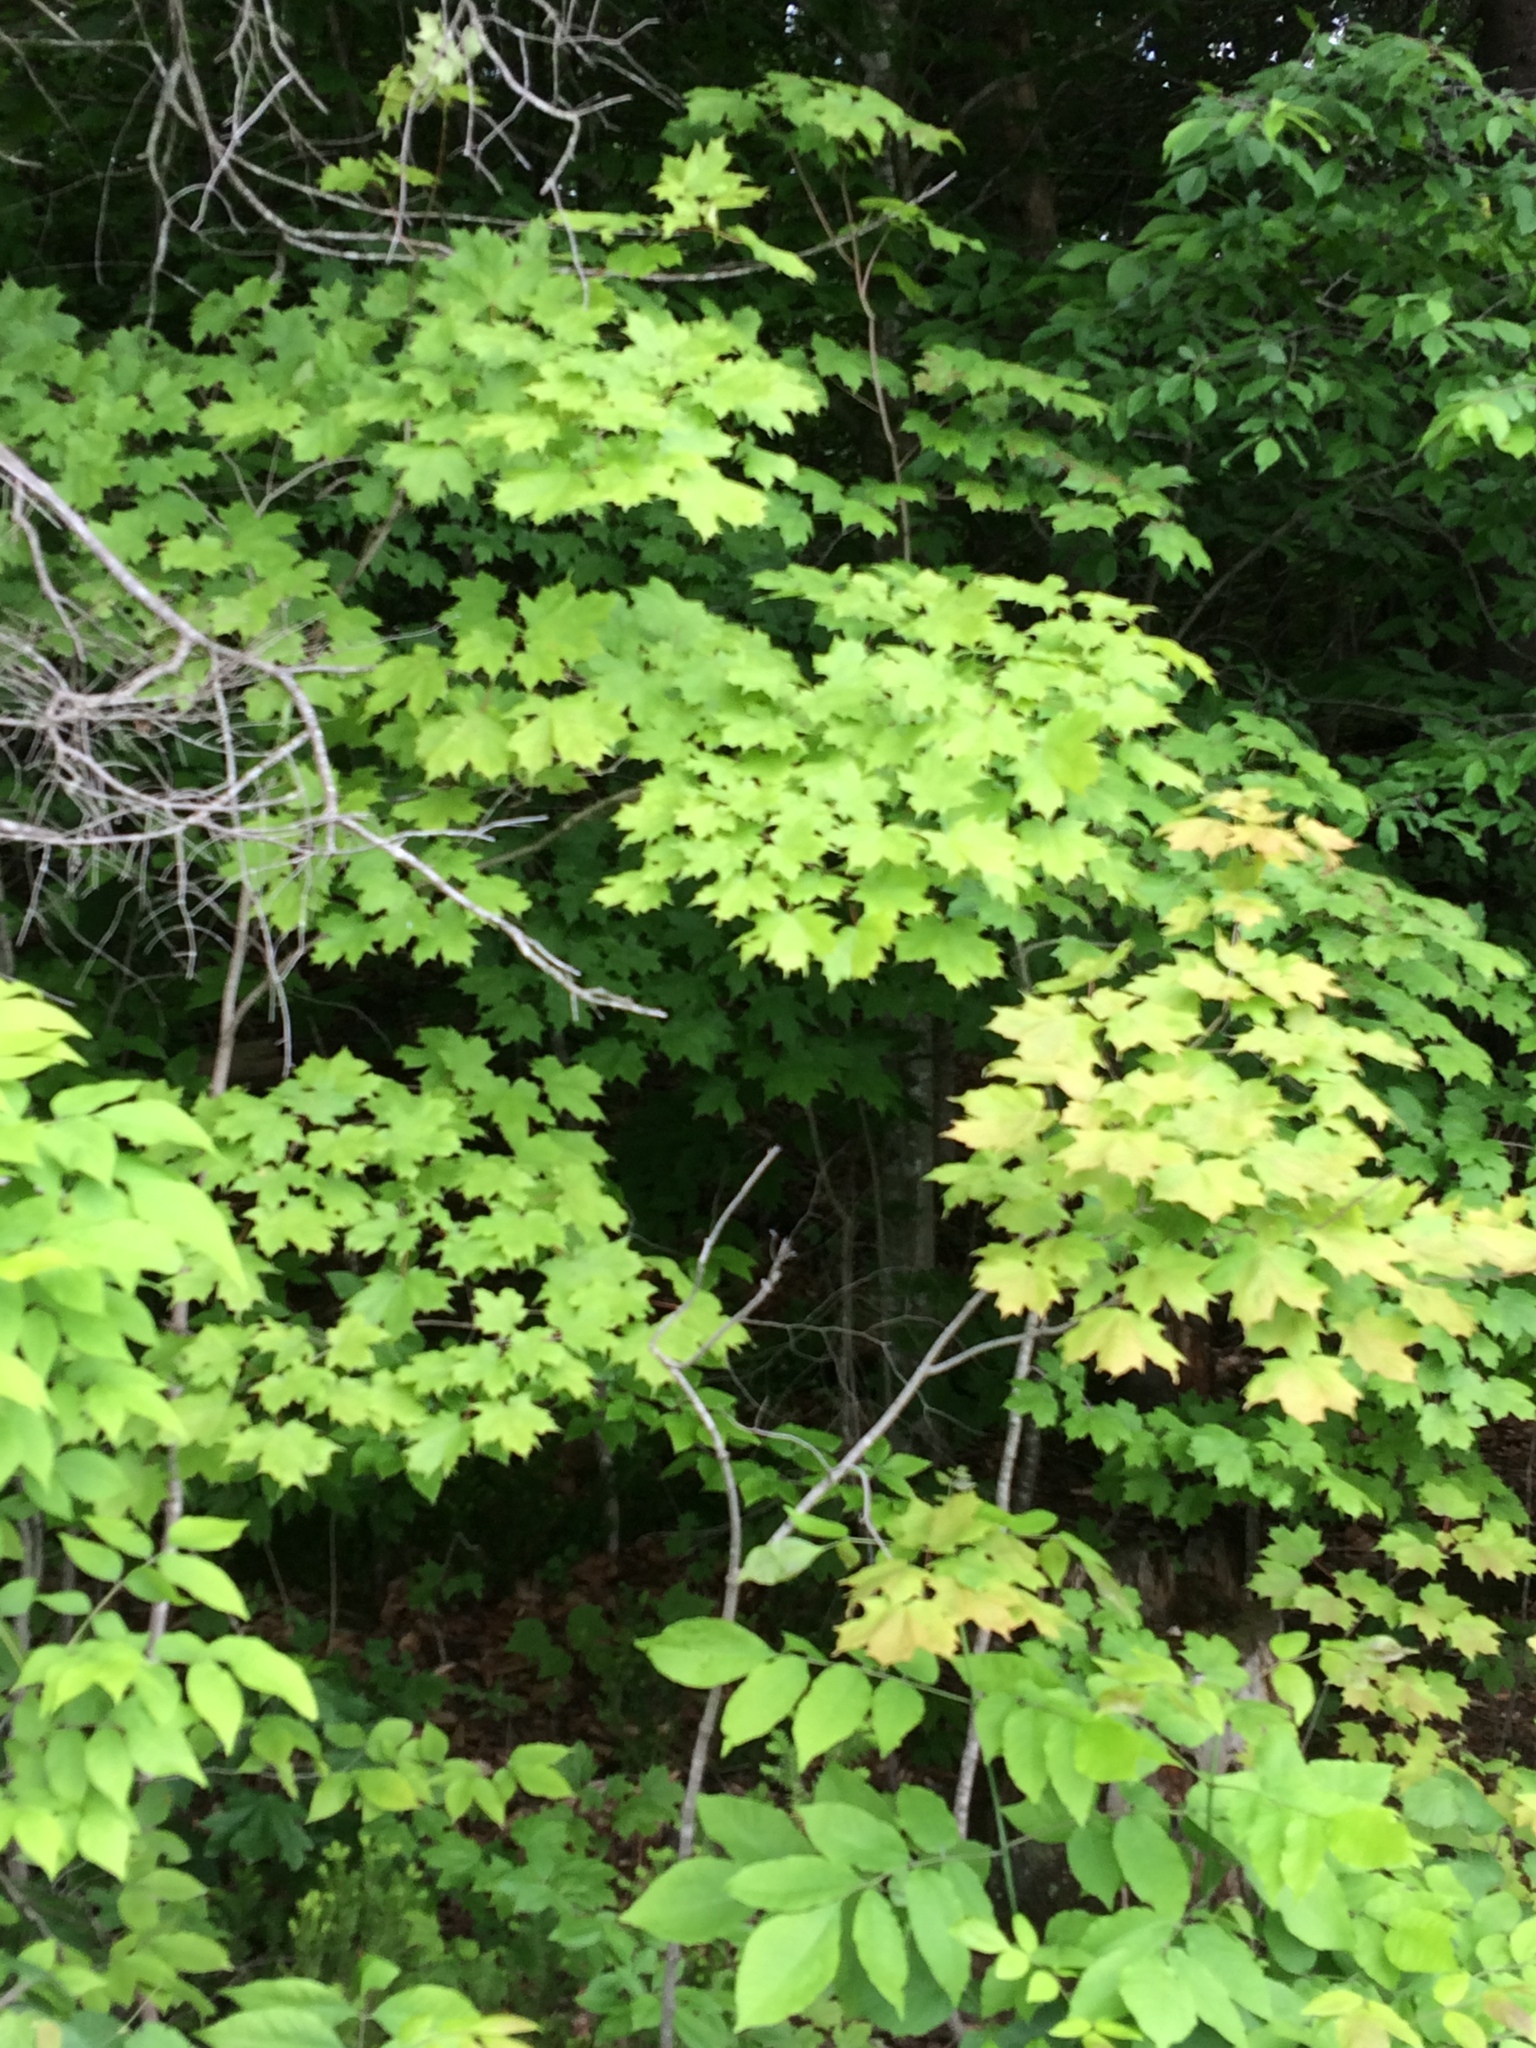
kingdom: Plantae
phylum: Tracheophyta
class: Magnoliopsida
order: Sapindales
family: Sapindaceae
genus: Acer
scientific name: Acer saccharum
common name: Sugar maple
